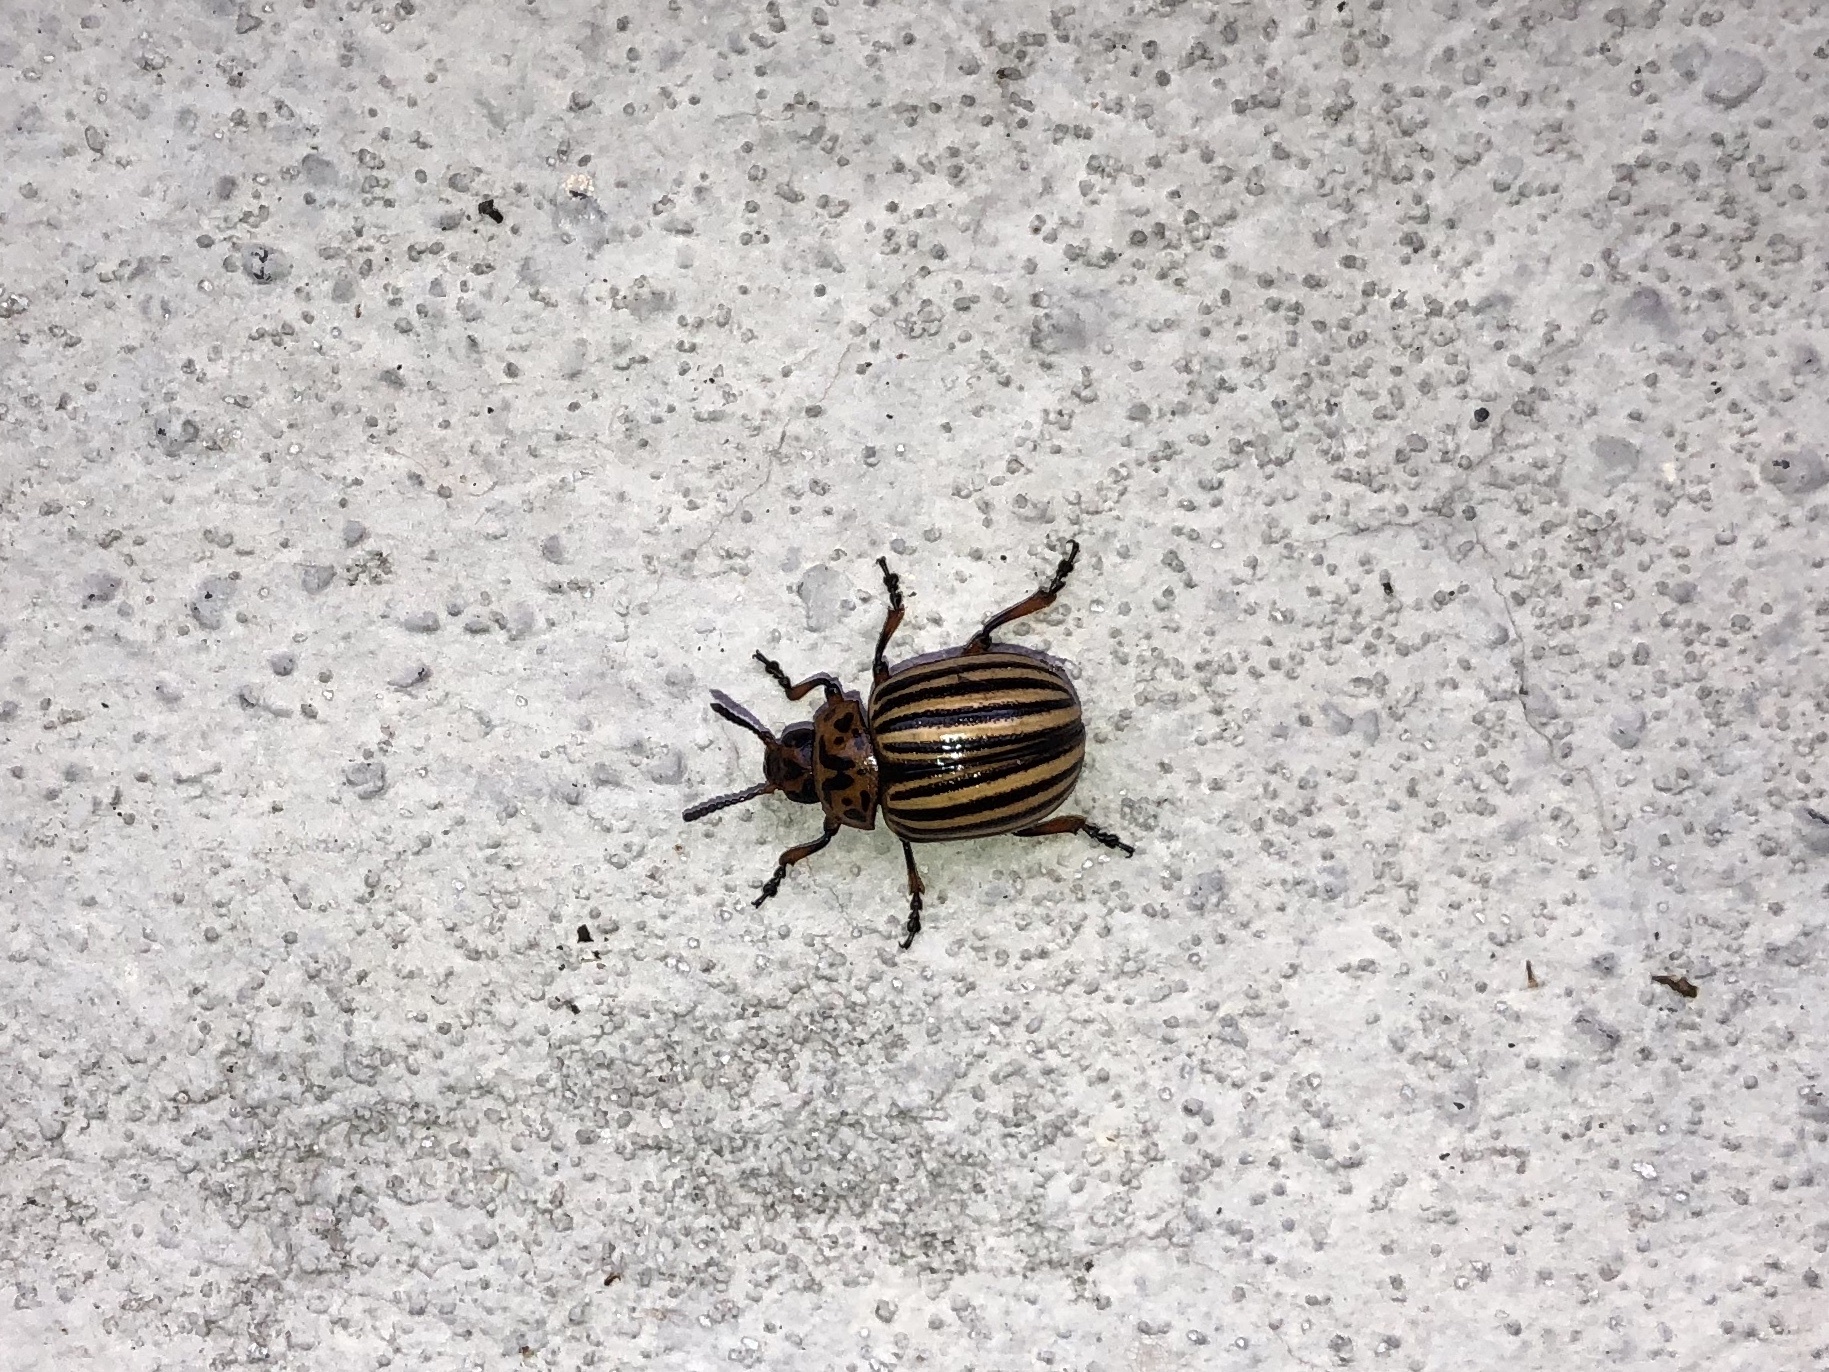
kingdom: Animalia
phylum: Arthropoda
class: Insecta
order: Coleoptera
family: Chrysomelidae
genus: Leptinotarsa
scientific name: Leptinotarsa decemlineata
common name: Colorado potato beetle
